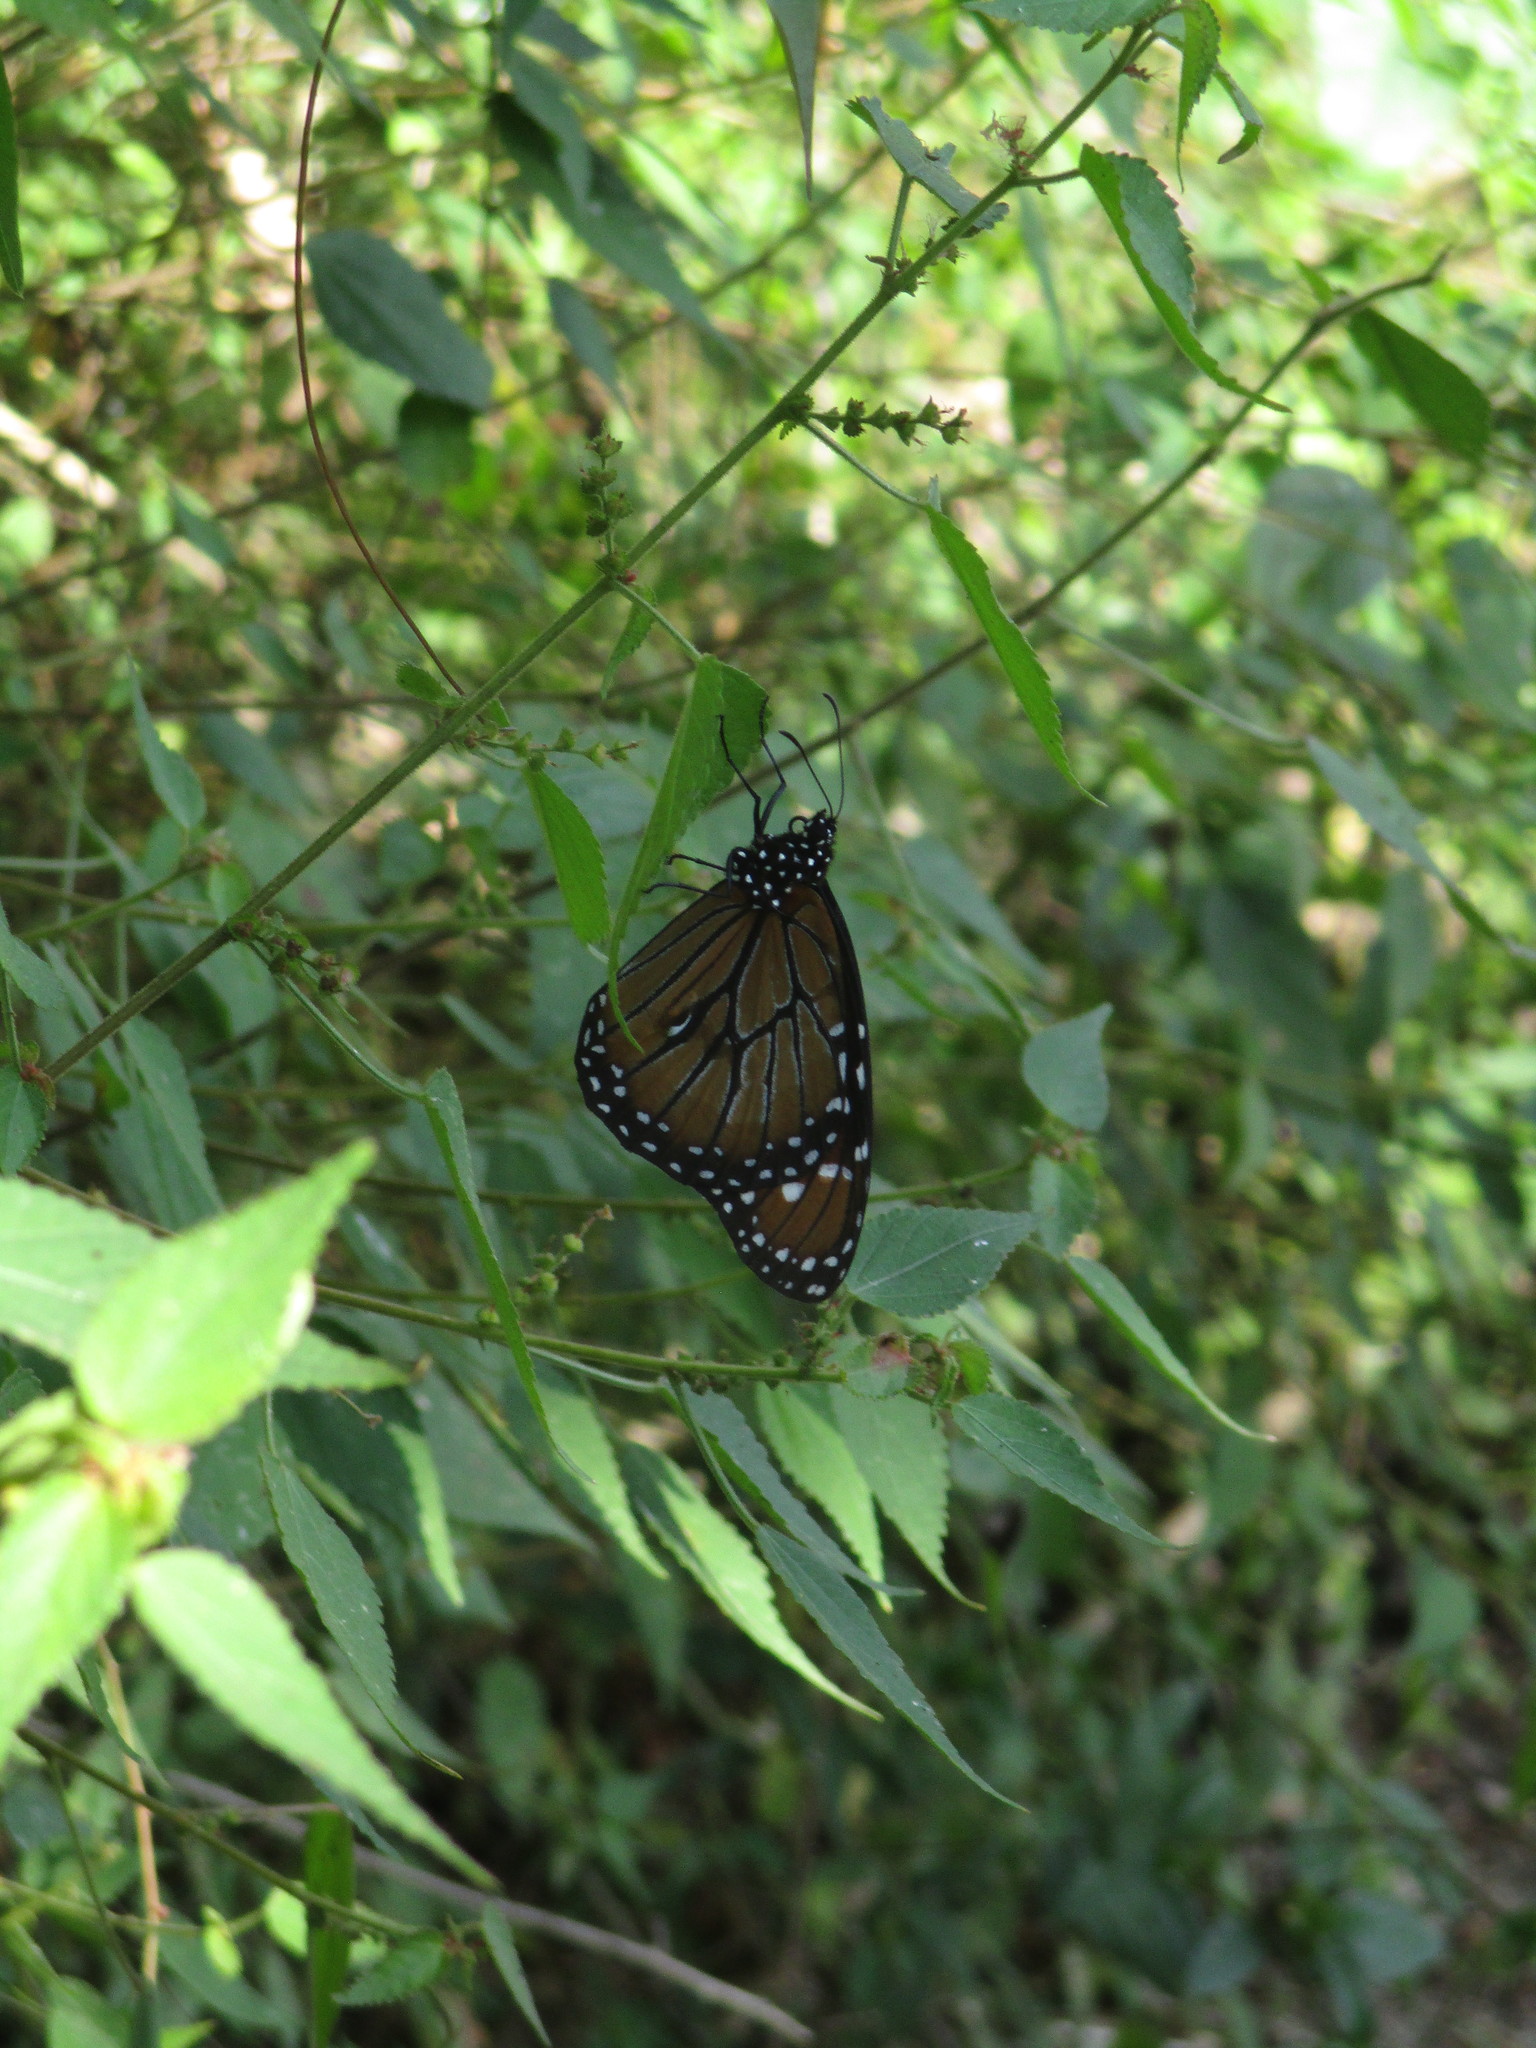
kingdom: Animalia
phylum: Arthropoda
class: Insecta
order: Lepidoptera
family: Nymphalidae
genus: Danaus
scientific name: Danaus eresimus
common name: Soldier
